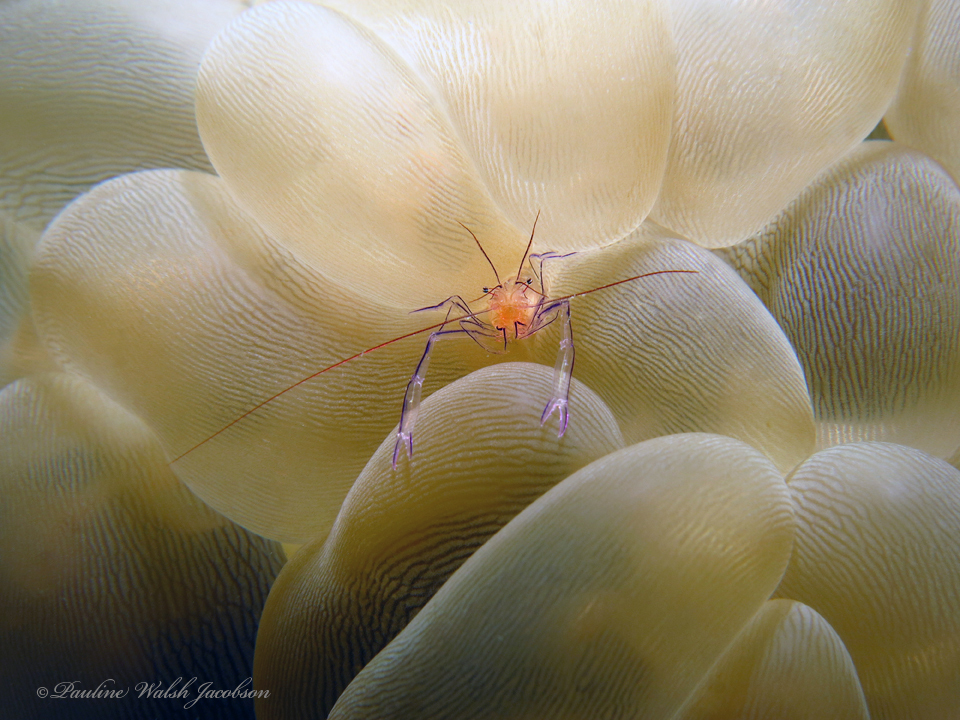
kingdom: Animalia
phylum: Arthropoda
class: Malacostraca
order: Decapoda
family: Palaemonidae
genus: Vir
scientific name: Vir philippinensis
